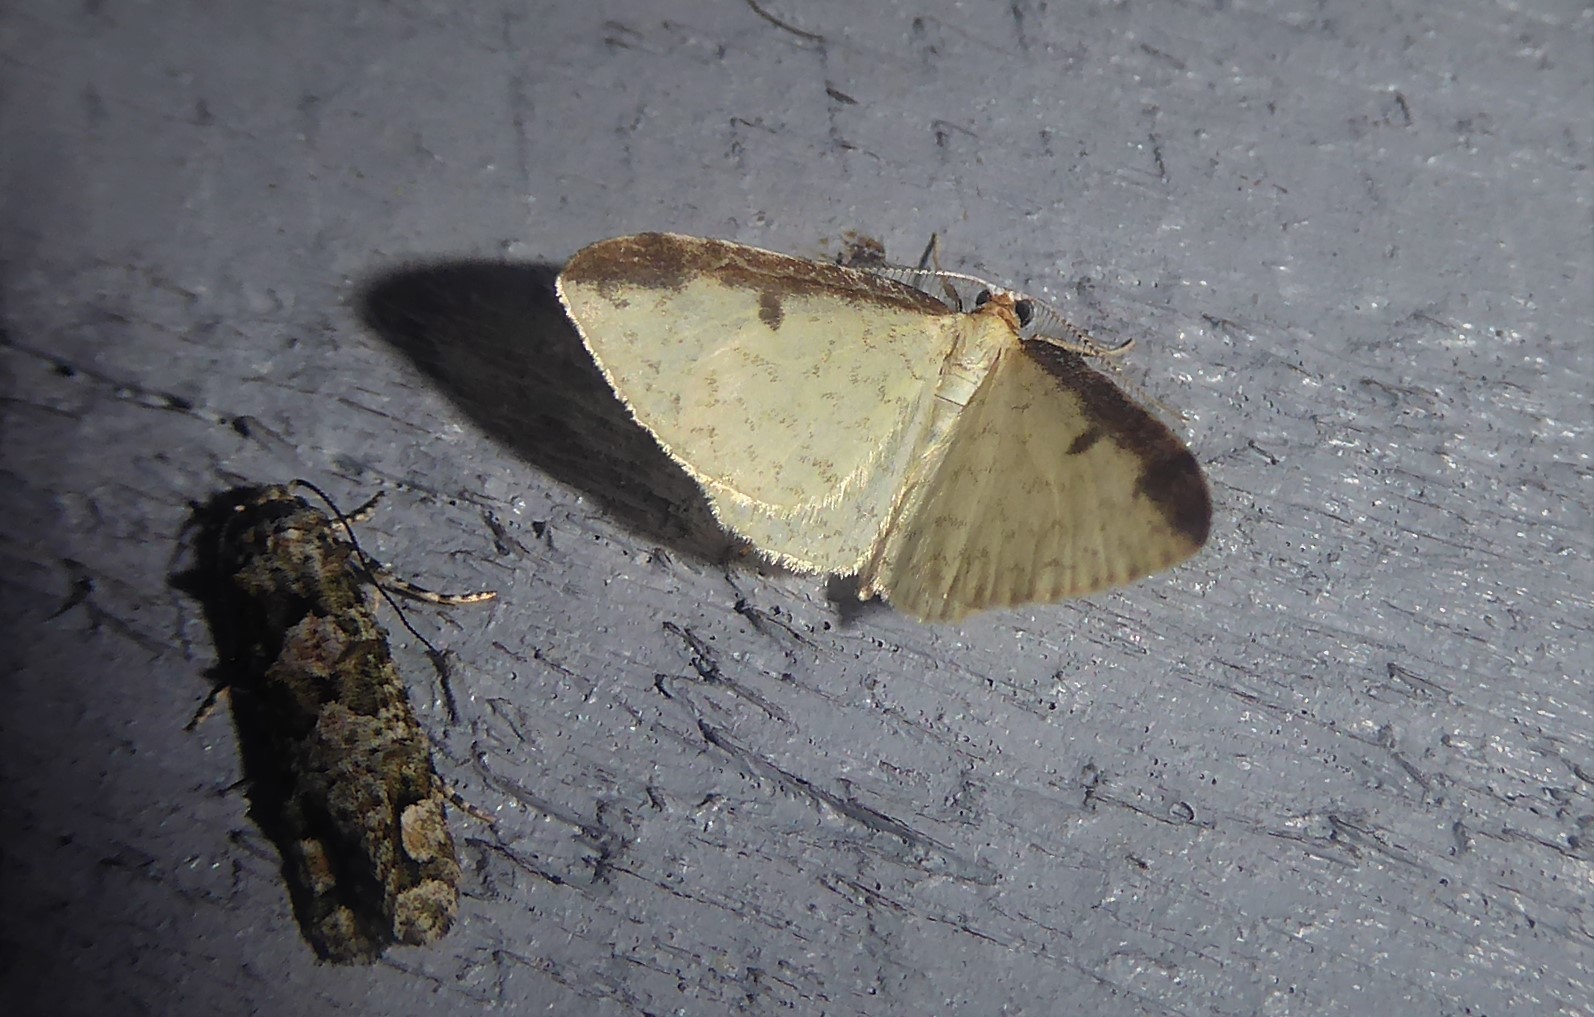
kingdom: Animalia
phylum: Arthropoda
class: Insecta
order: Lepidoptera
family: Geometridae
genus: Epiphryne
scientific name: Epiphryne undosata
